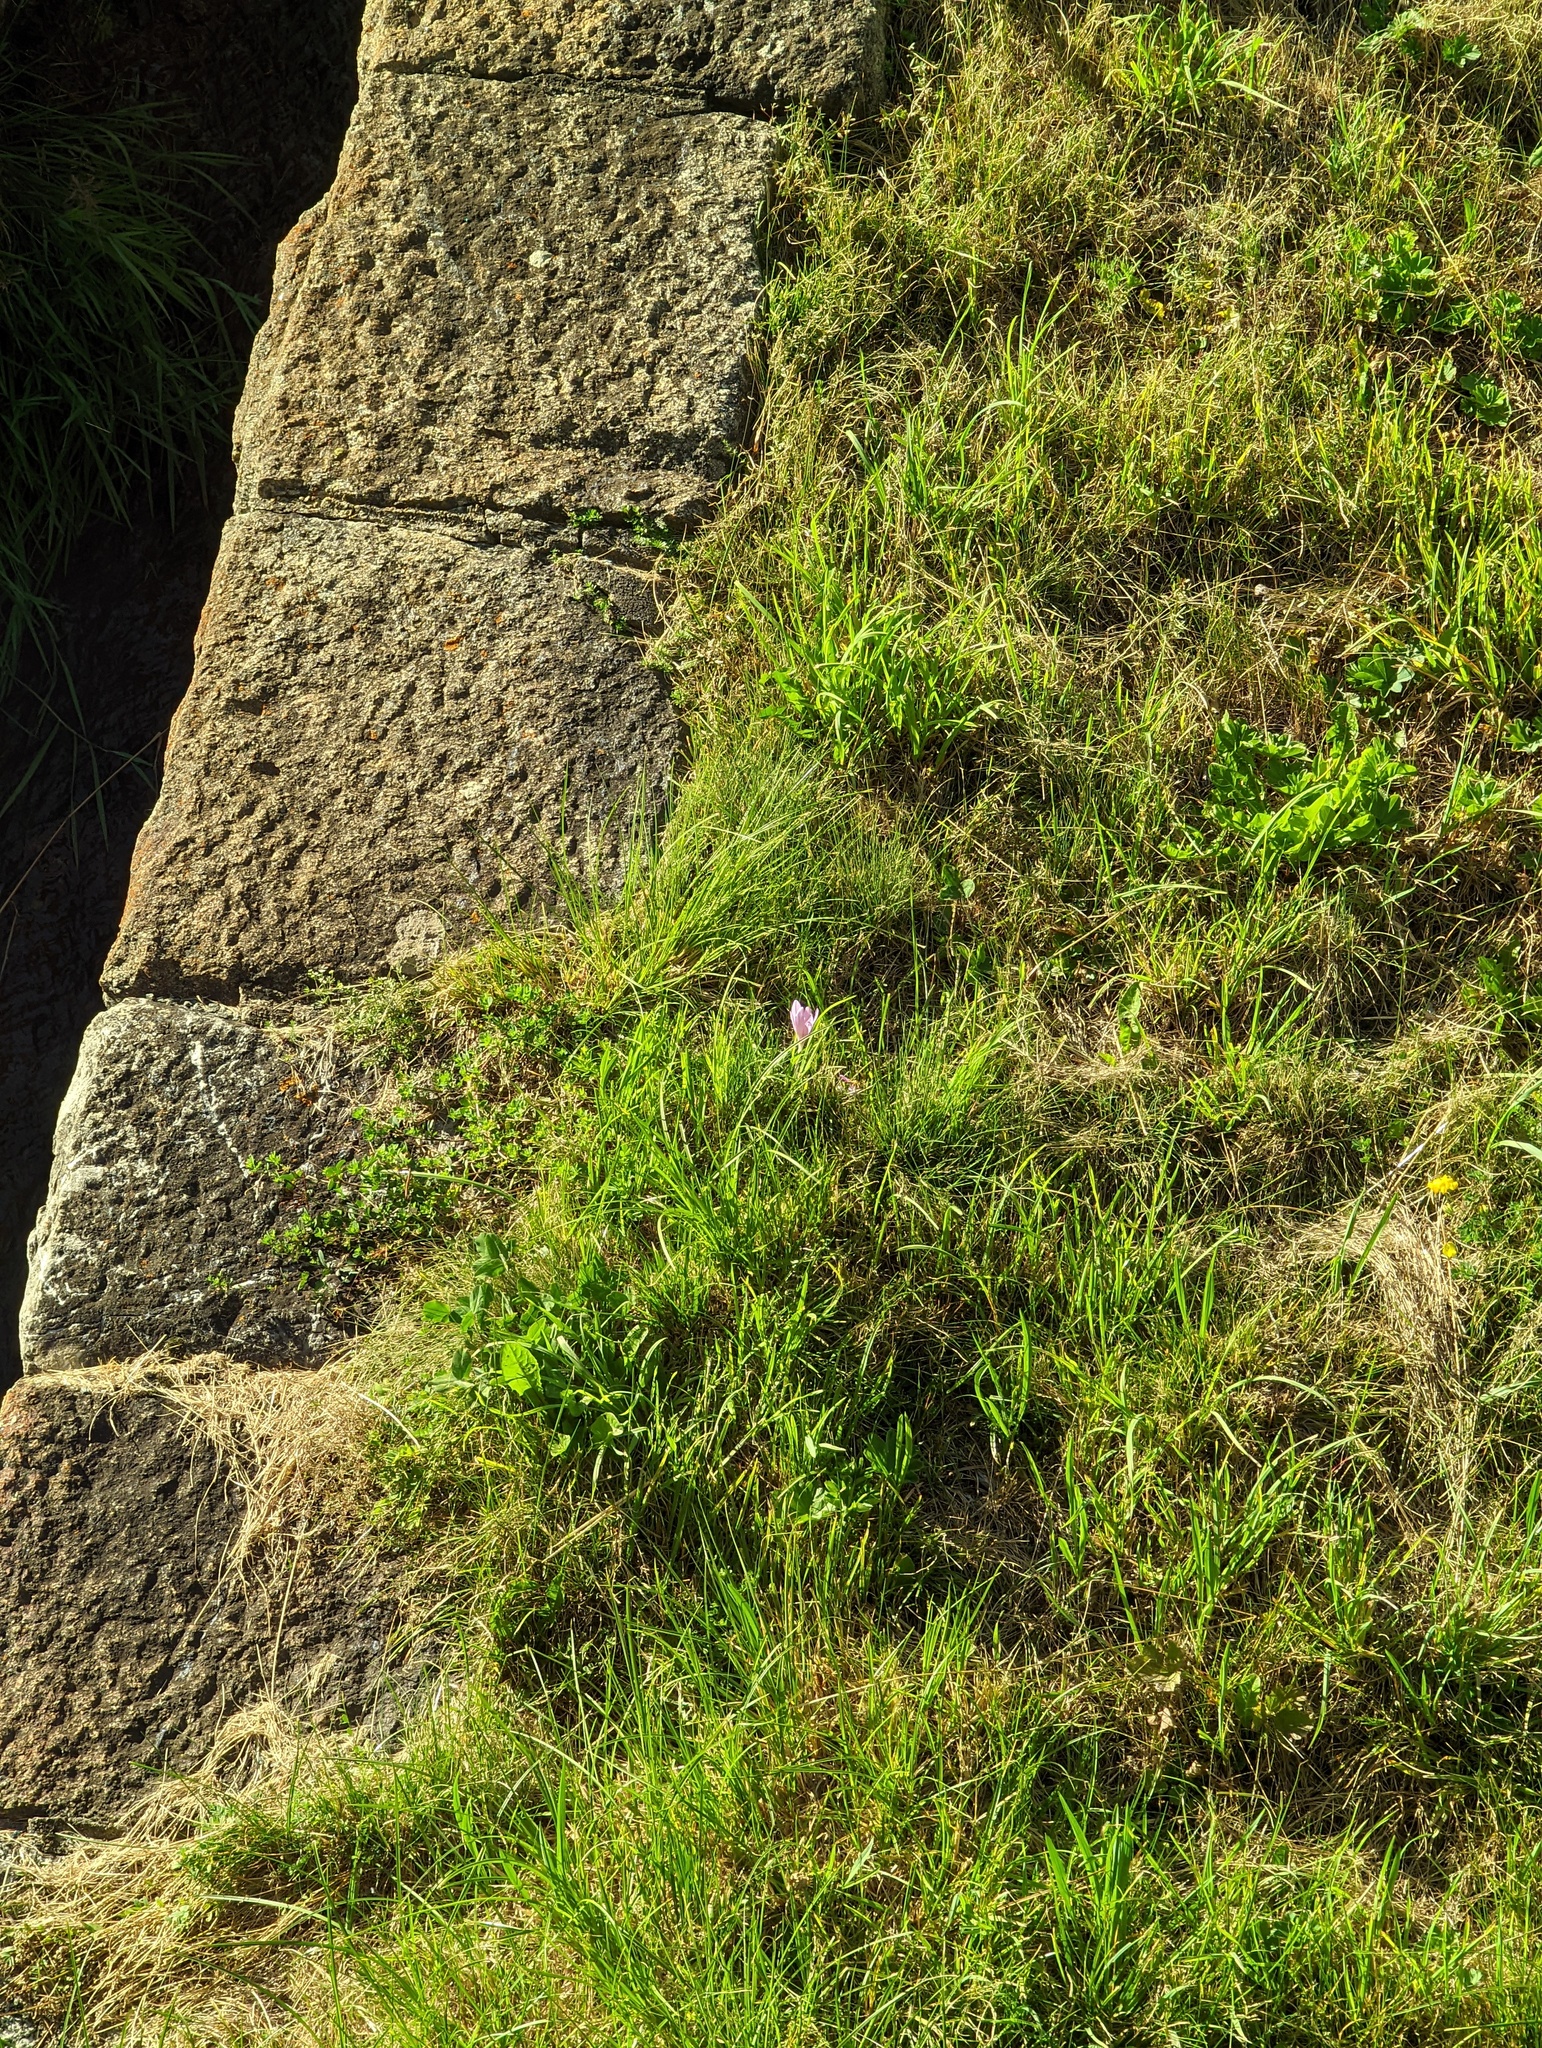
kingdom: Plantae
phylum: Tracheophyta
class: Liliopsida
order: Liliales
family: Colchicaceae
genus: Colchicum
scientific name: Colchicum autumnale
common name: Autumn crocus
